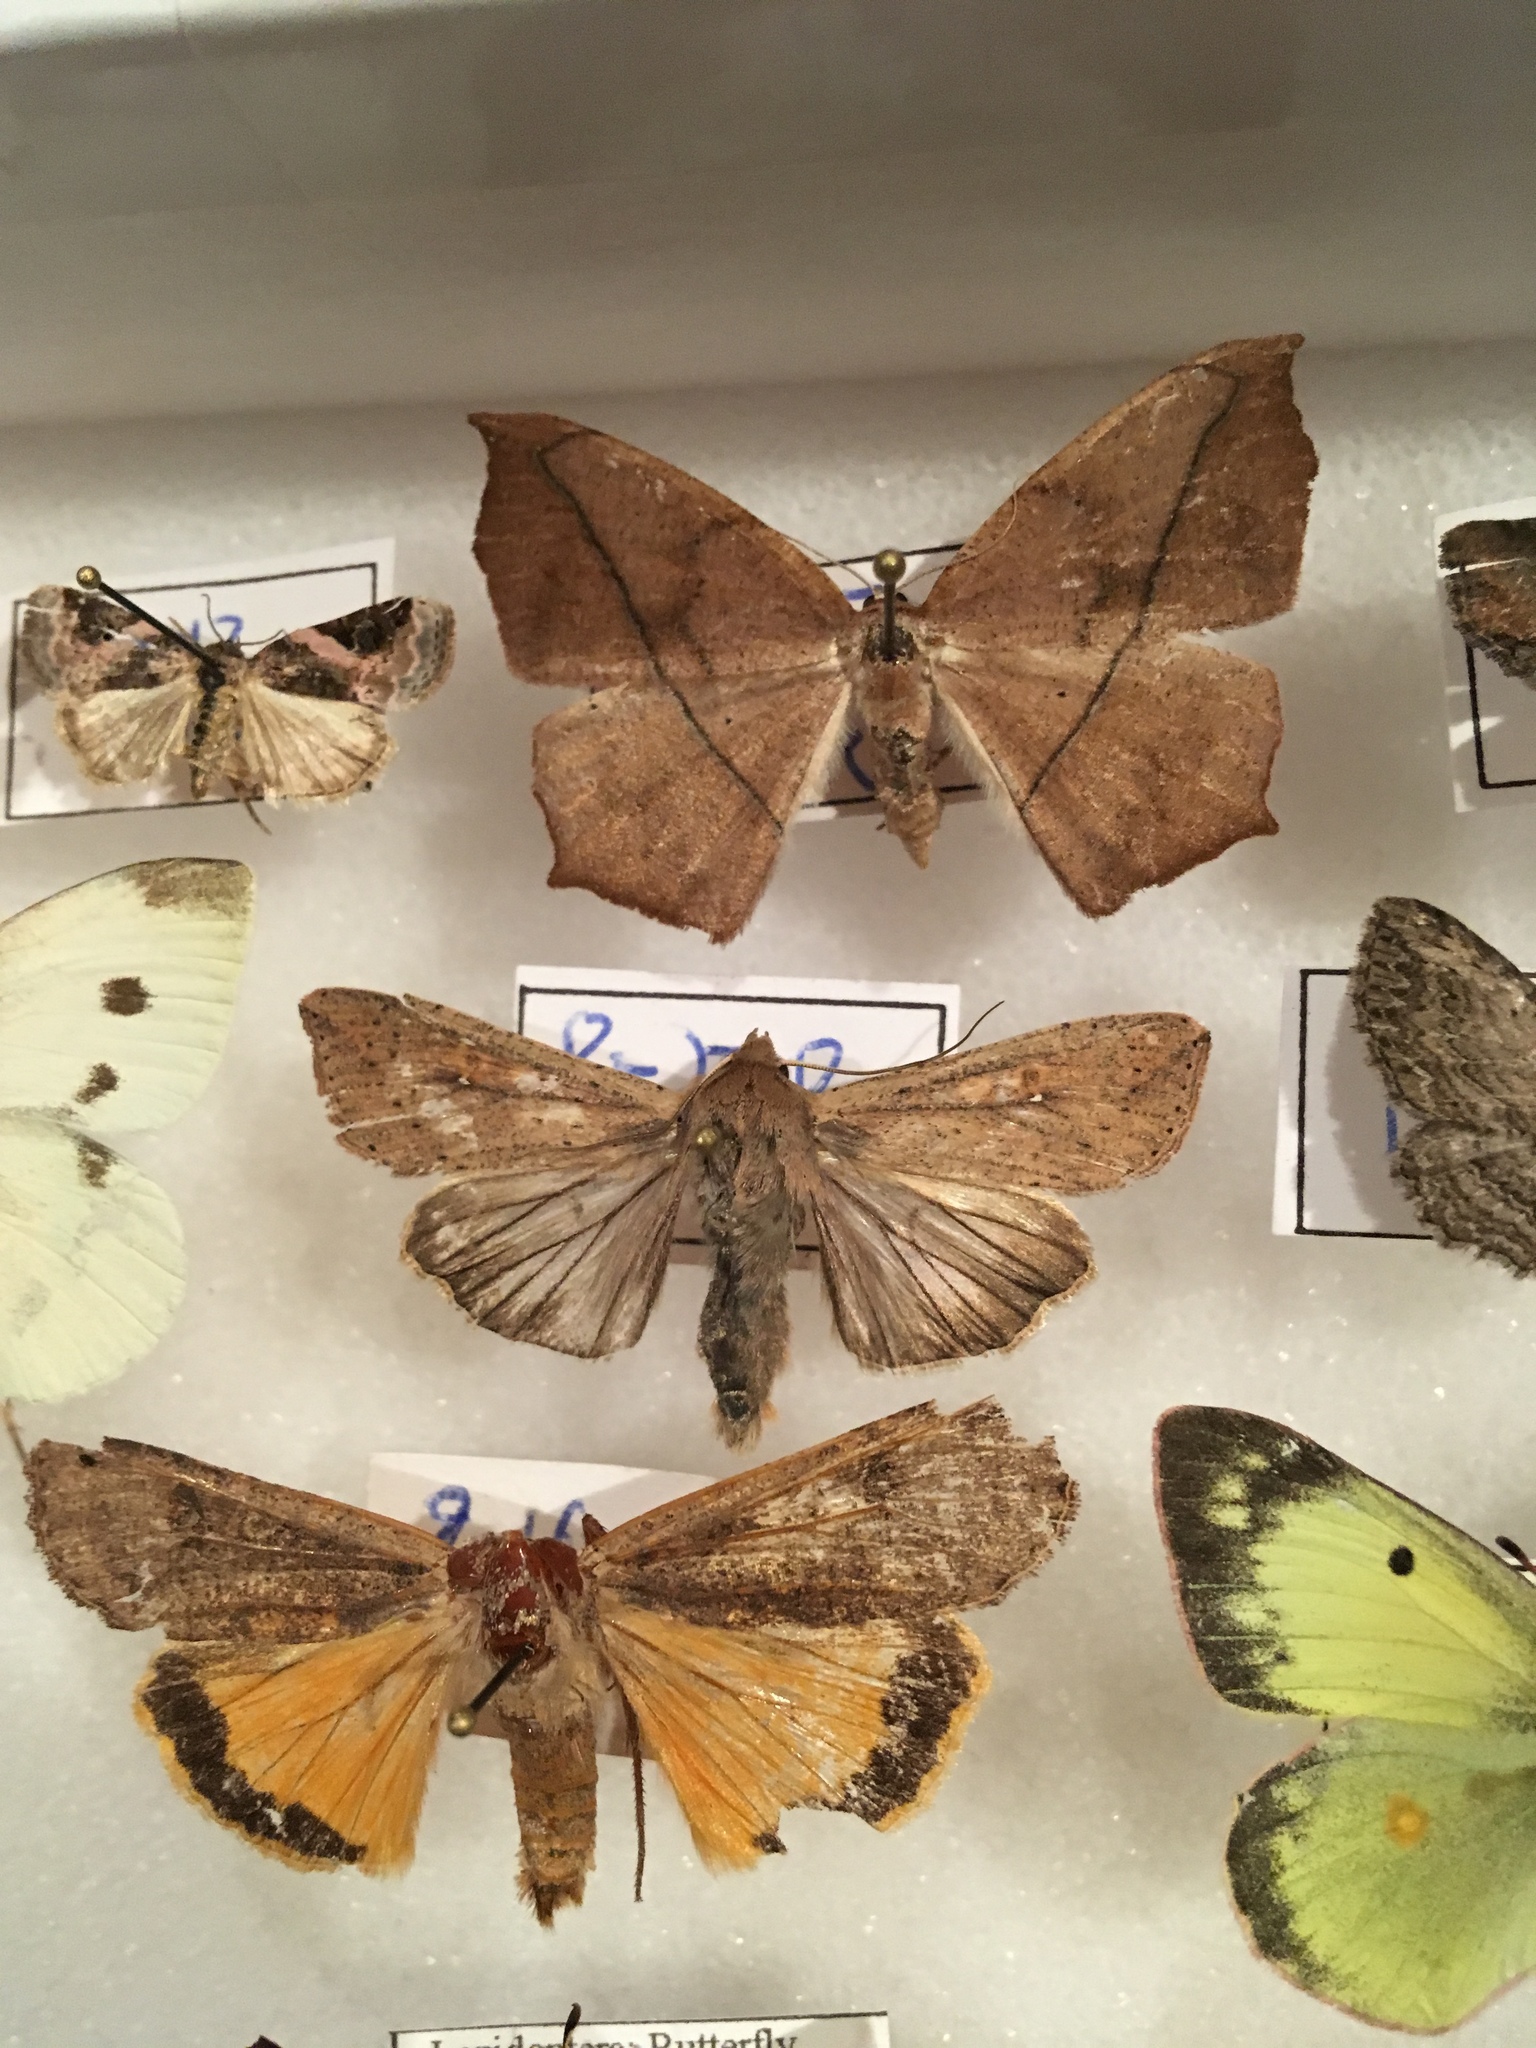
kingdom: Animalia
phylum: Arthropoda
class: Insecta
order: Lepidoptera
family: Noctuidae
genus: Mythimna
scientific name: Mythimna unipuncta
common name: White-speck
